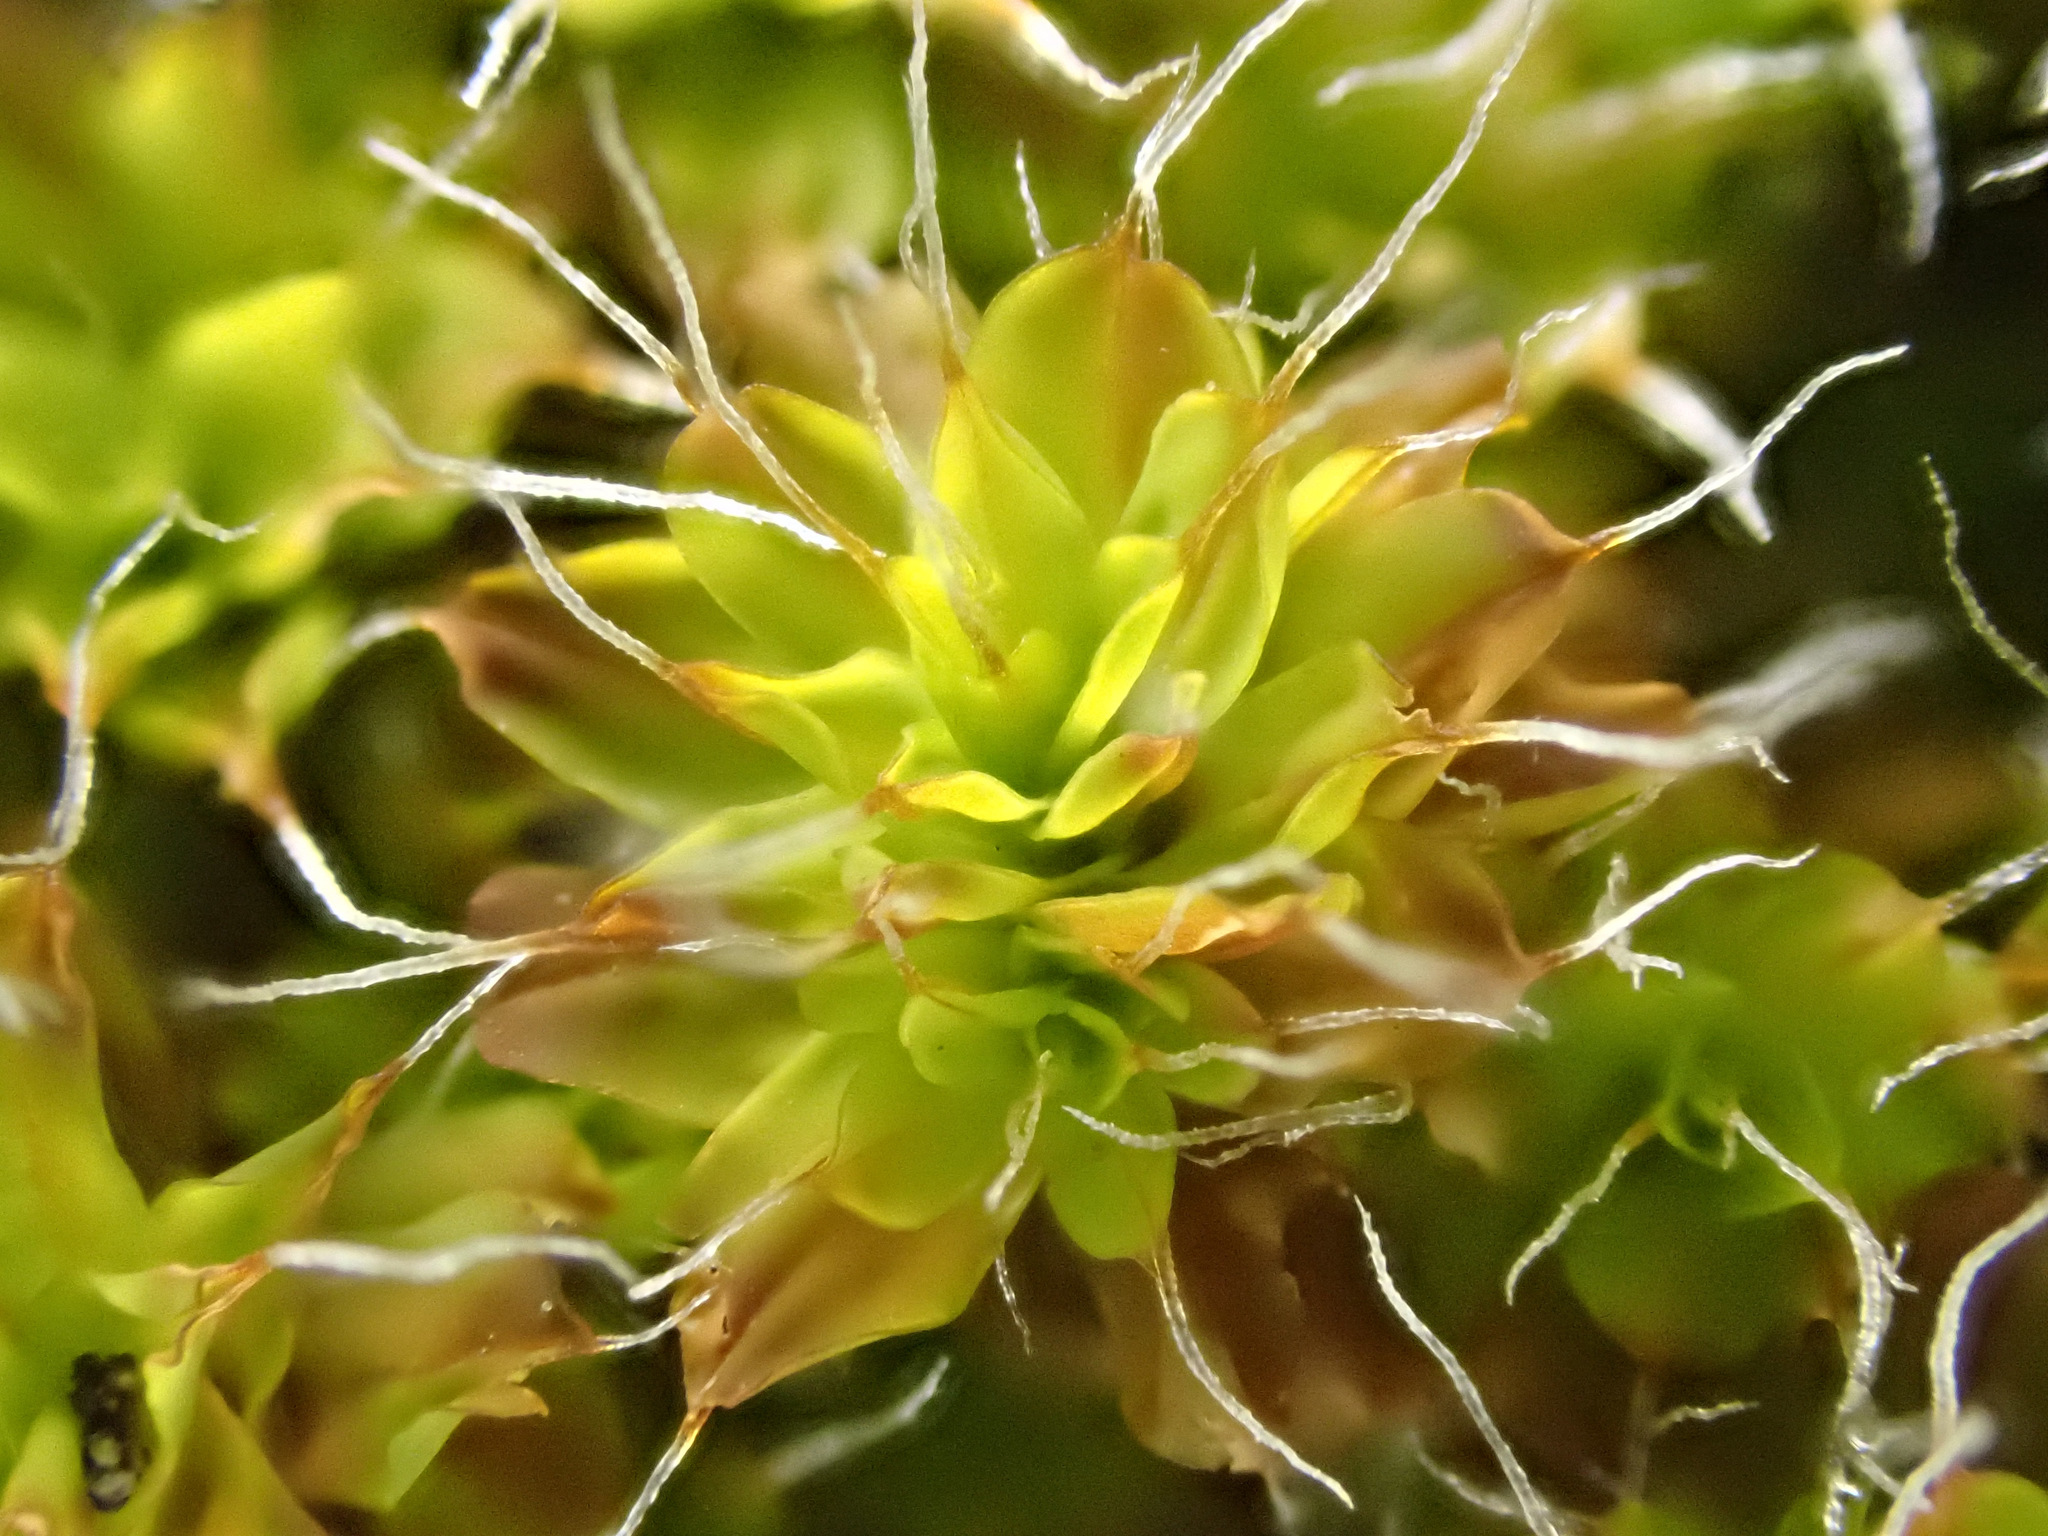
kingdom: Plantae
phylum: Bryophyta
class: Bryopsida
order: Pottiales
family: Pottiaceae
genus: Syntrichia
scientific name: Syntrichia ruralis
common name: Sidewalk screw moss
